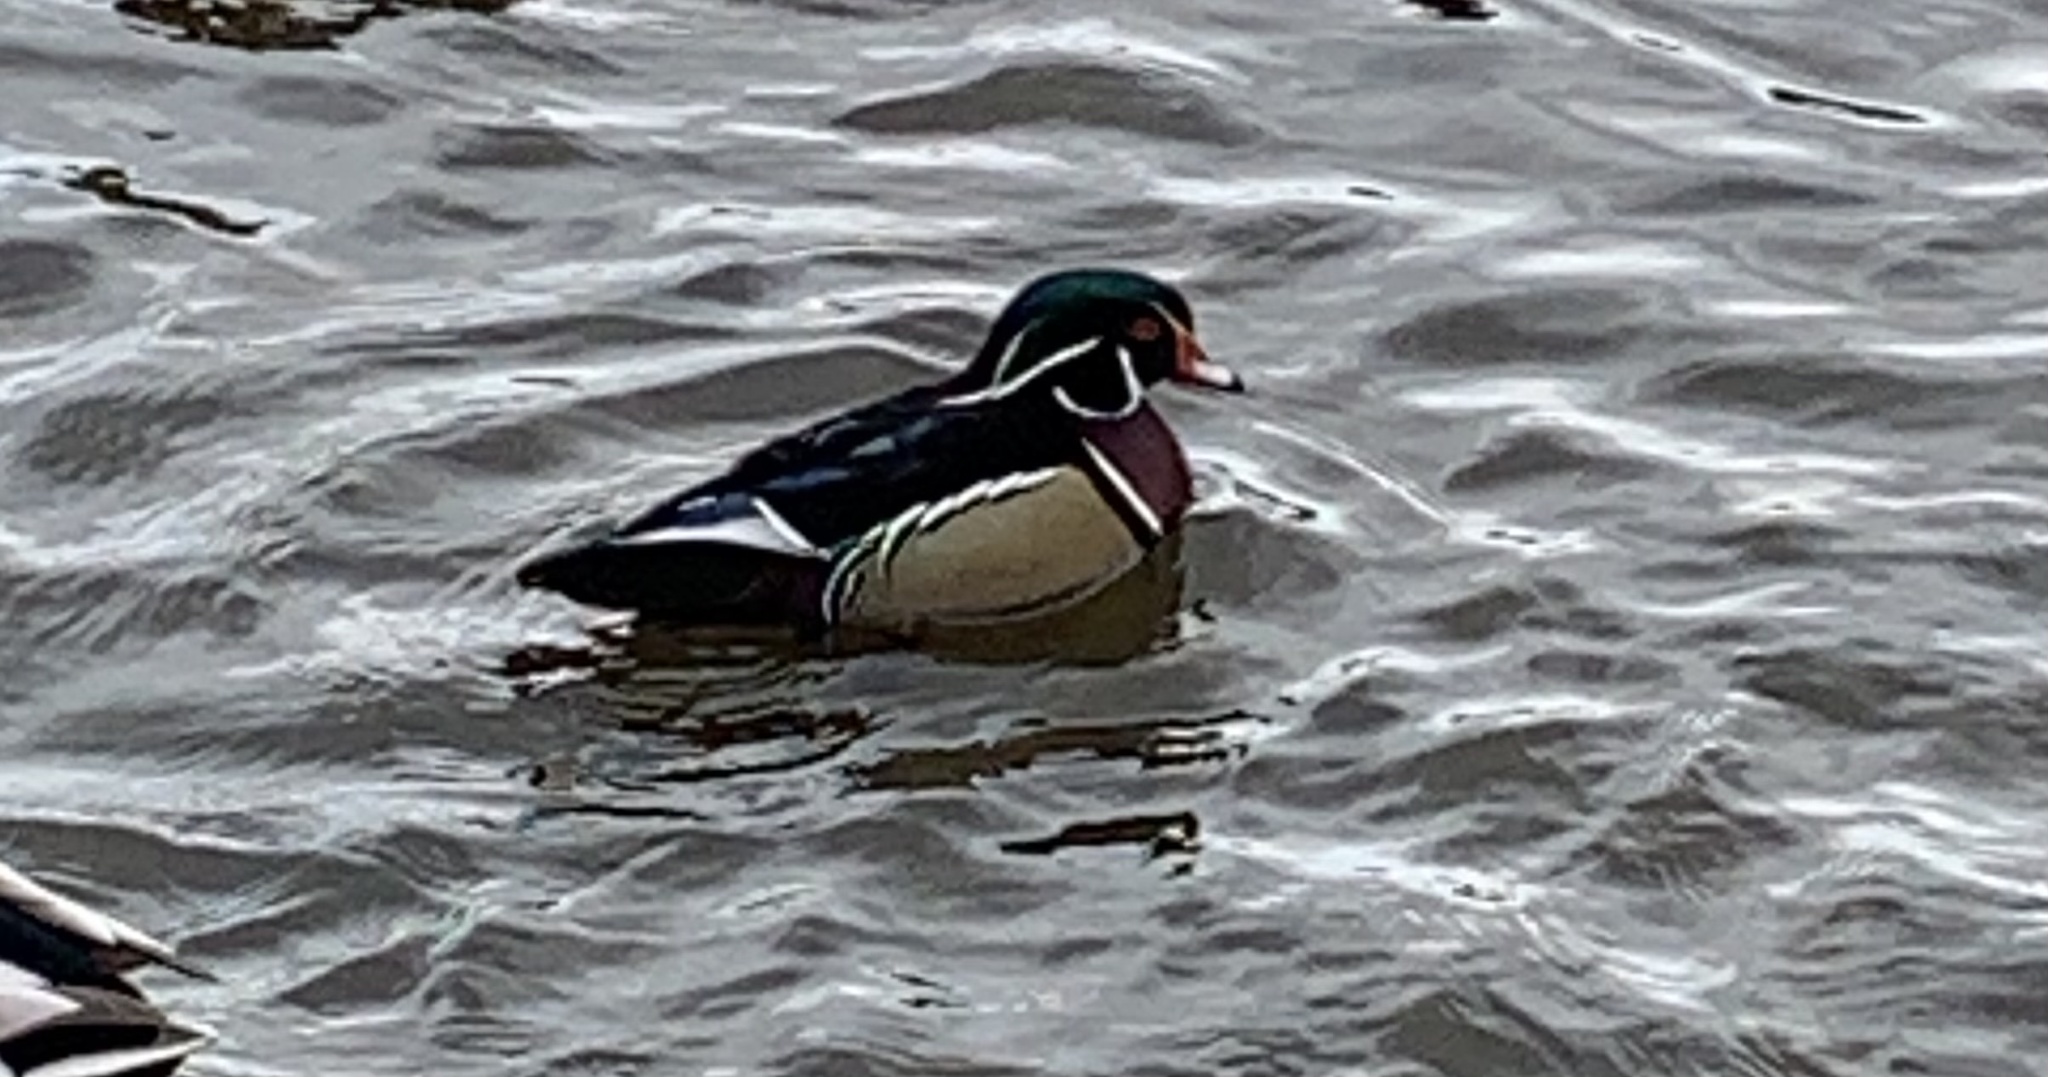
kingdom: Animalia
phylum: Chordata
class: Aves
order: Anseriformes
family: Anatidae
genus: Aix
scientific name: Aix sponsa
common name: Wood duck
